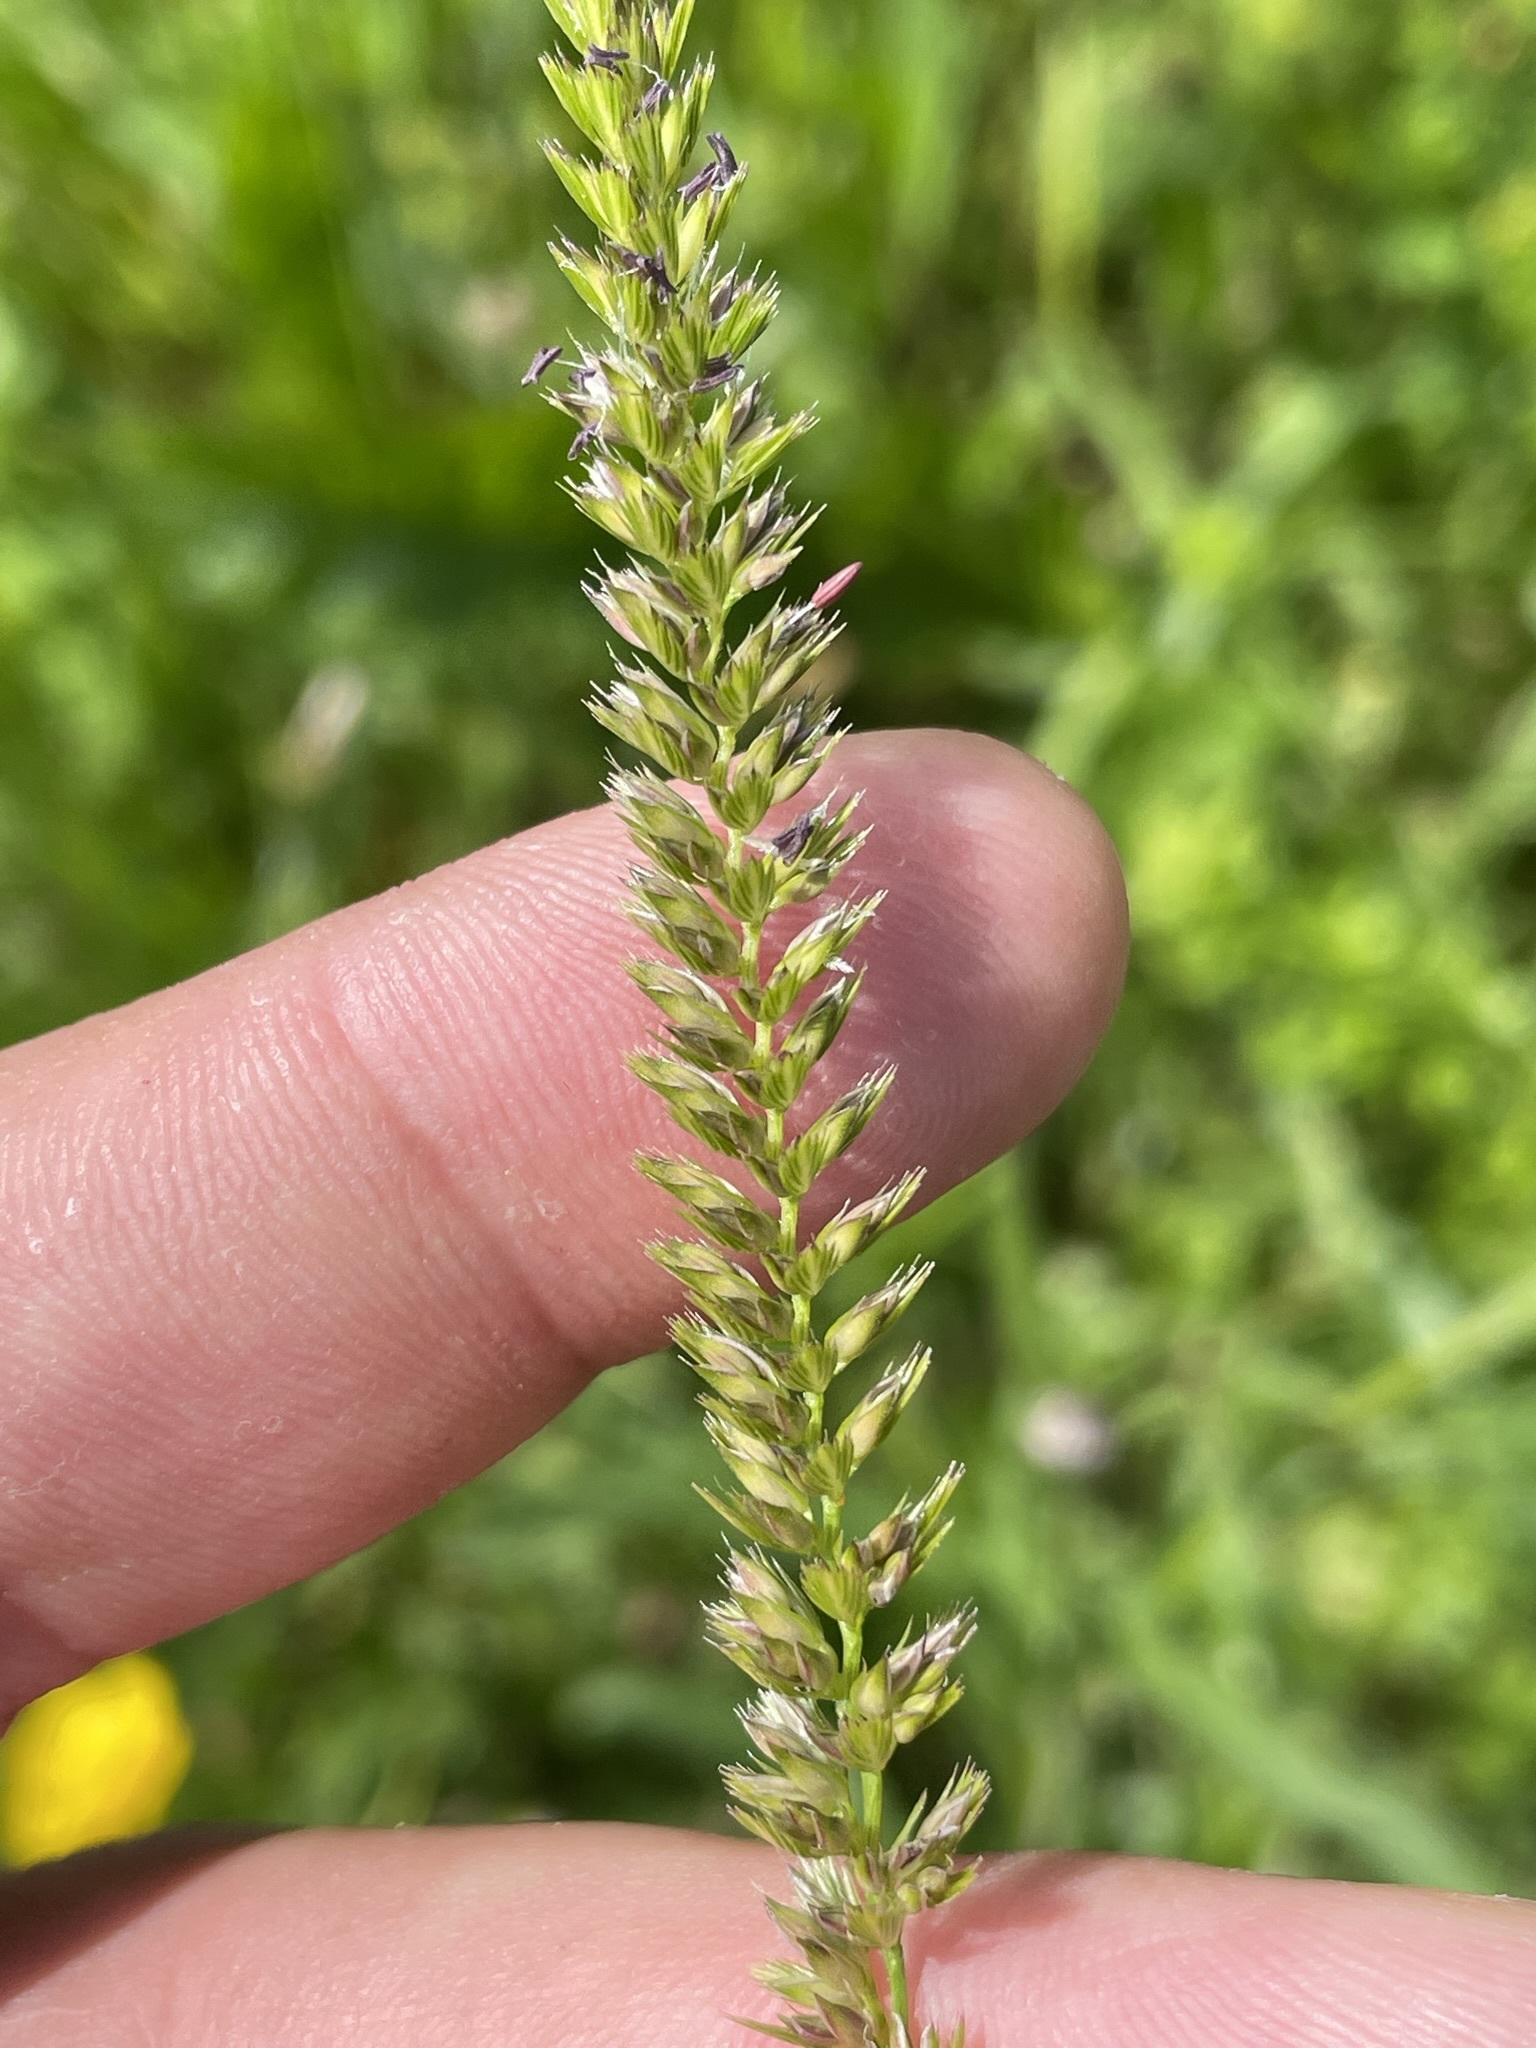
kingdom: Plantae
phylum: Tracheophyta
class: Liliopsida
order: Poales
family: Poaceae
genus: Cynosurus
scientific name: Cynosurus cristatus
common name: Crested dog's-tail
